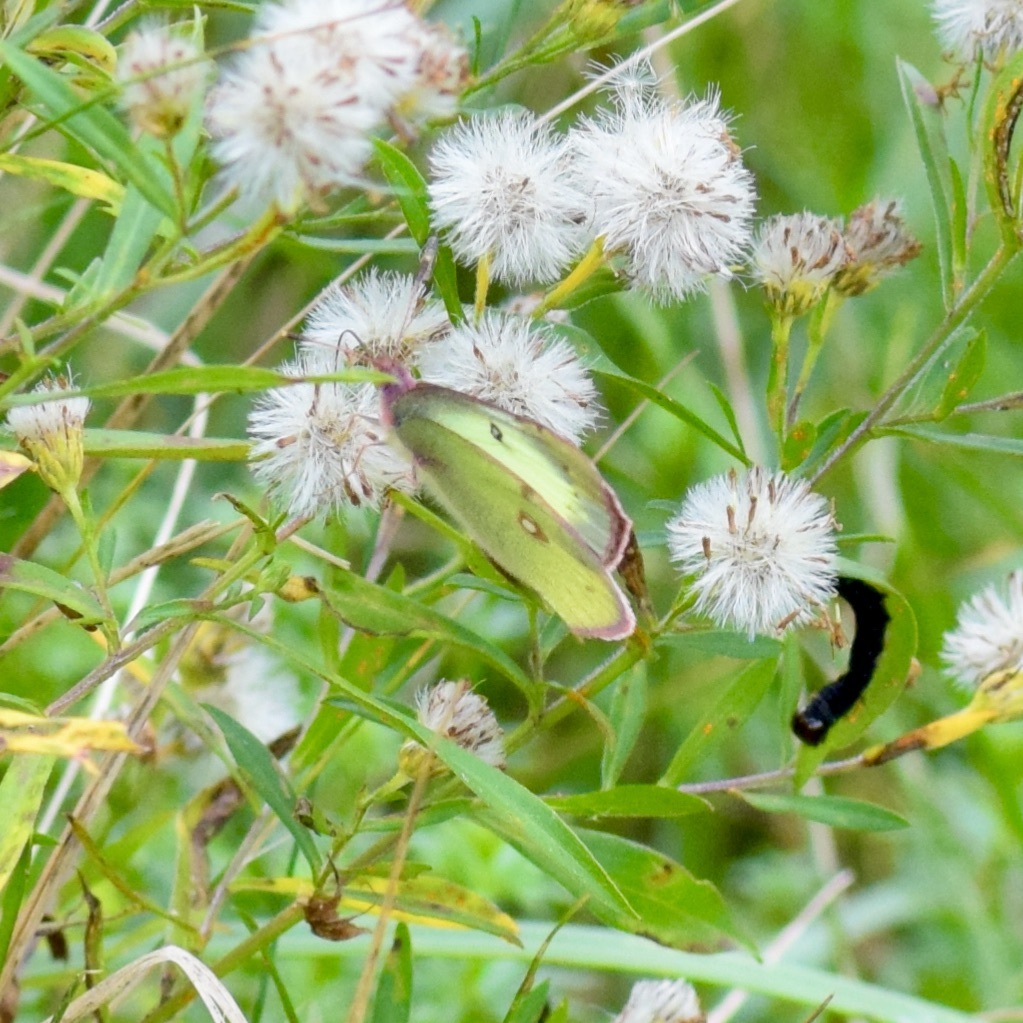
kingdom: Animalia
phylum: Arthropoda
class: Insecta
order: Lepidoptera
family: Pieridae
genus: Colias
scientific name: Colias philodice
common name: Clouded sulphur
